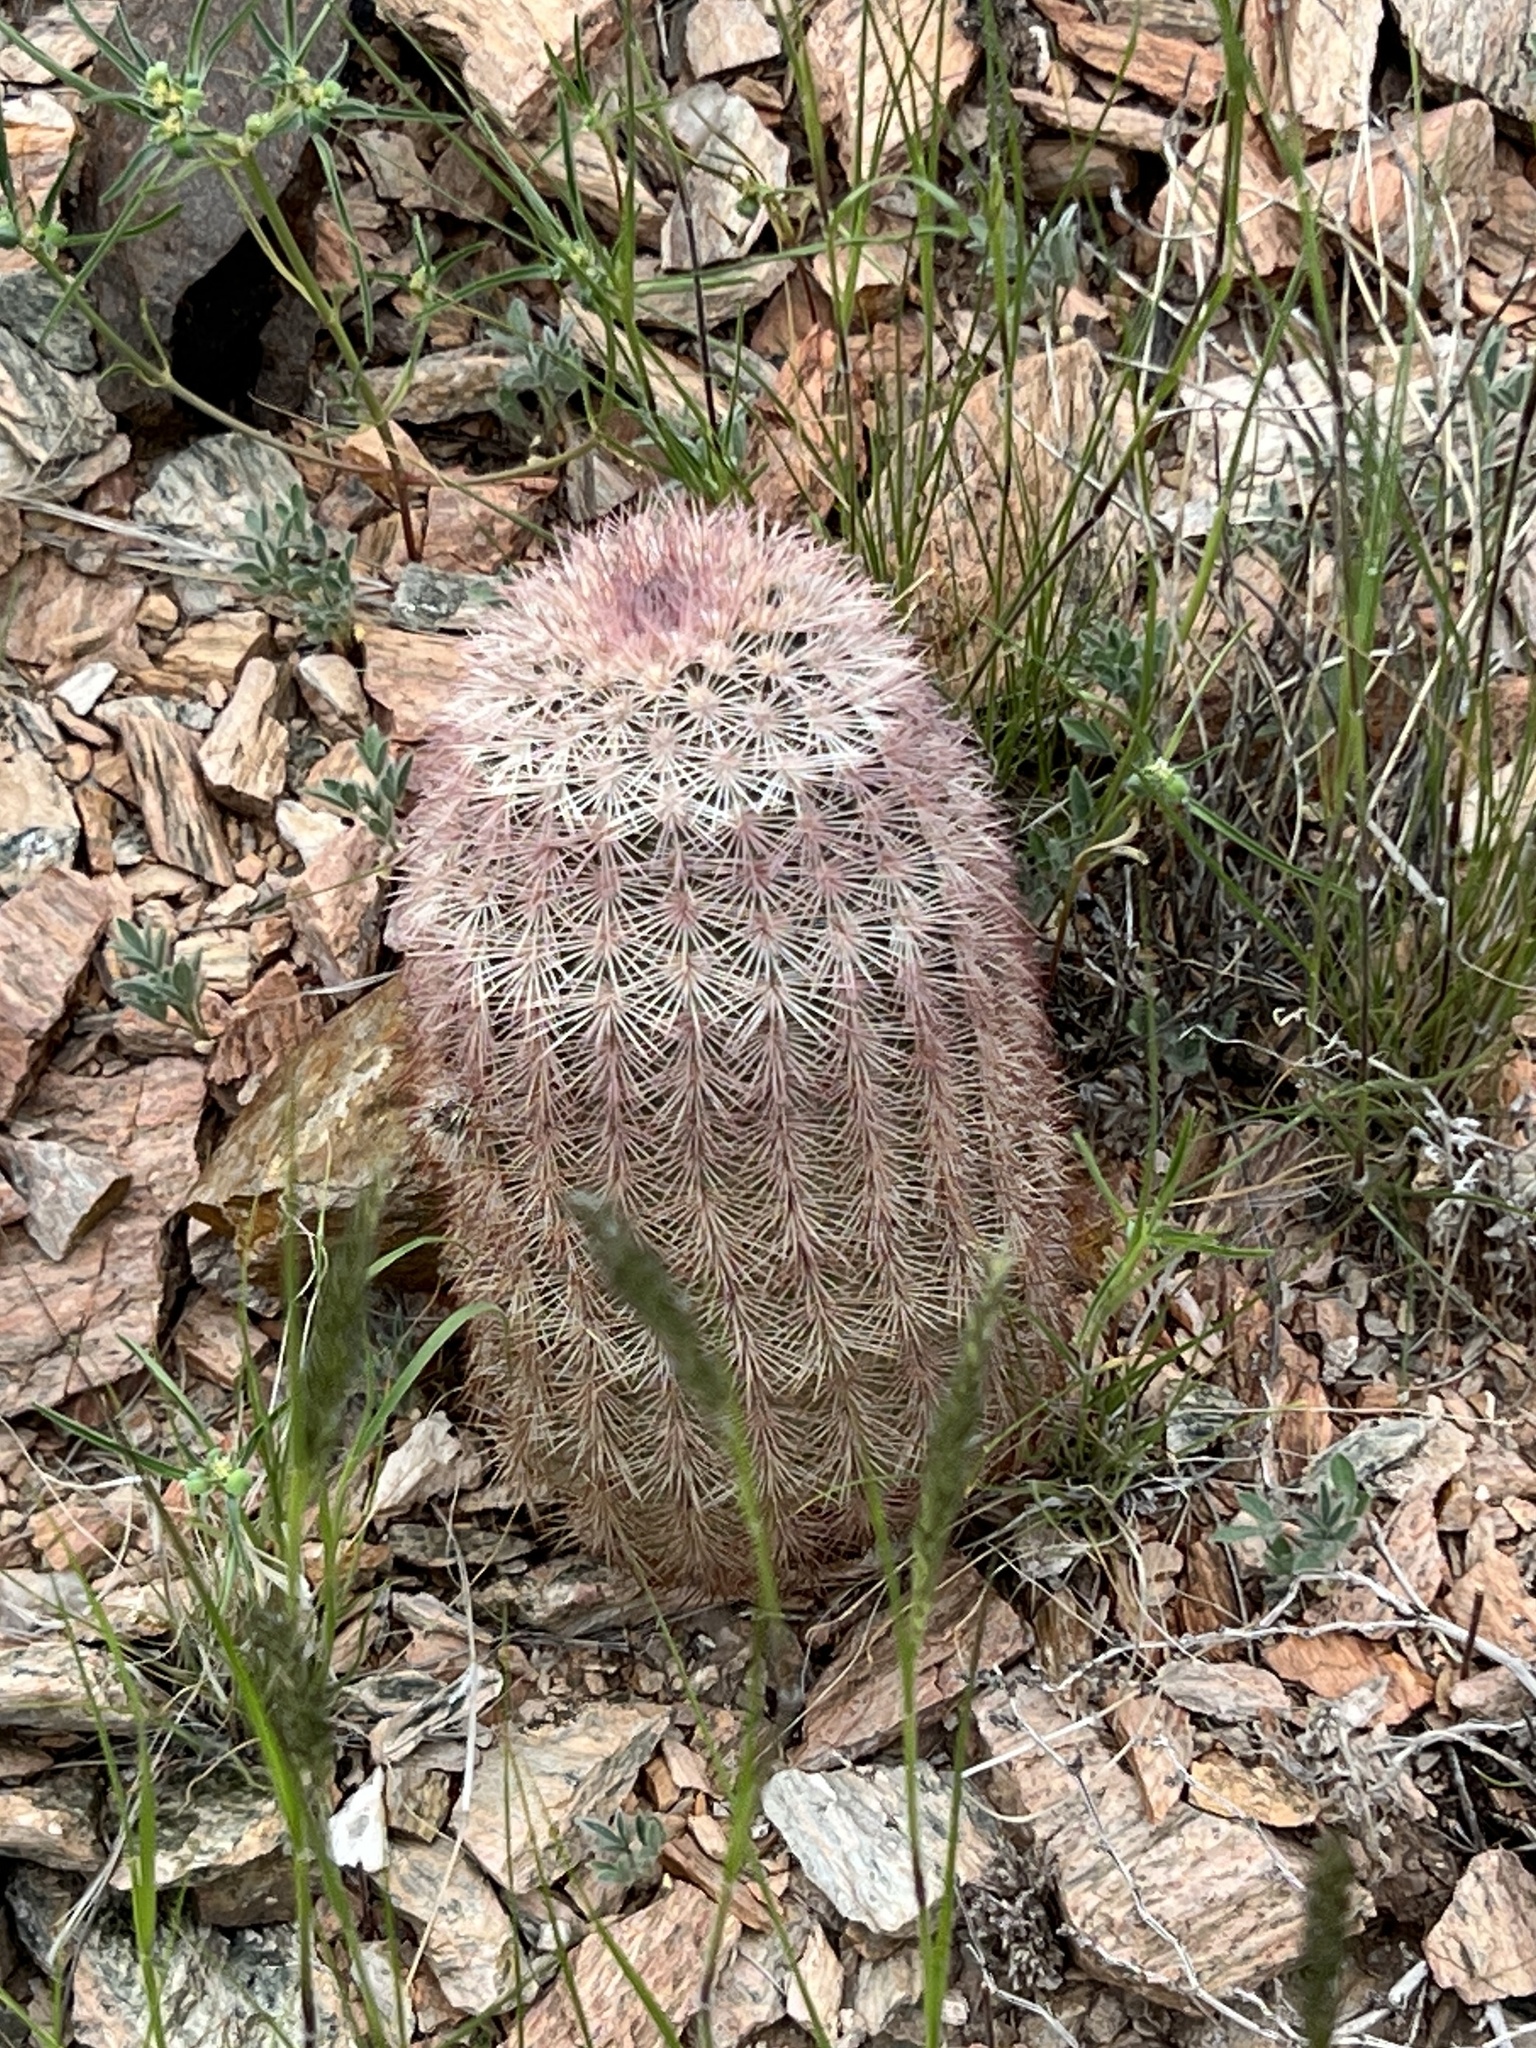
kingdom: Plantae
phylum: Tracheophyta
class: Magnoliopsida
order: Caryophyllales
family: Cactaceae
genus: Echinocereus
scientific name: Echinocereus dasyacanthus
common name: Spiny hedgehog cactus
